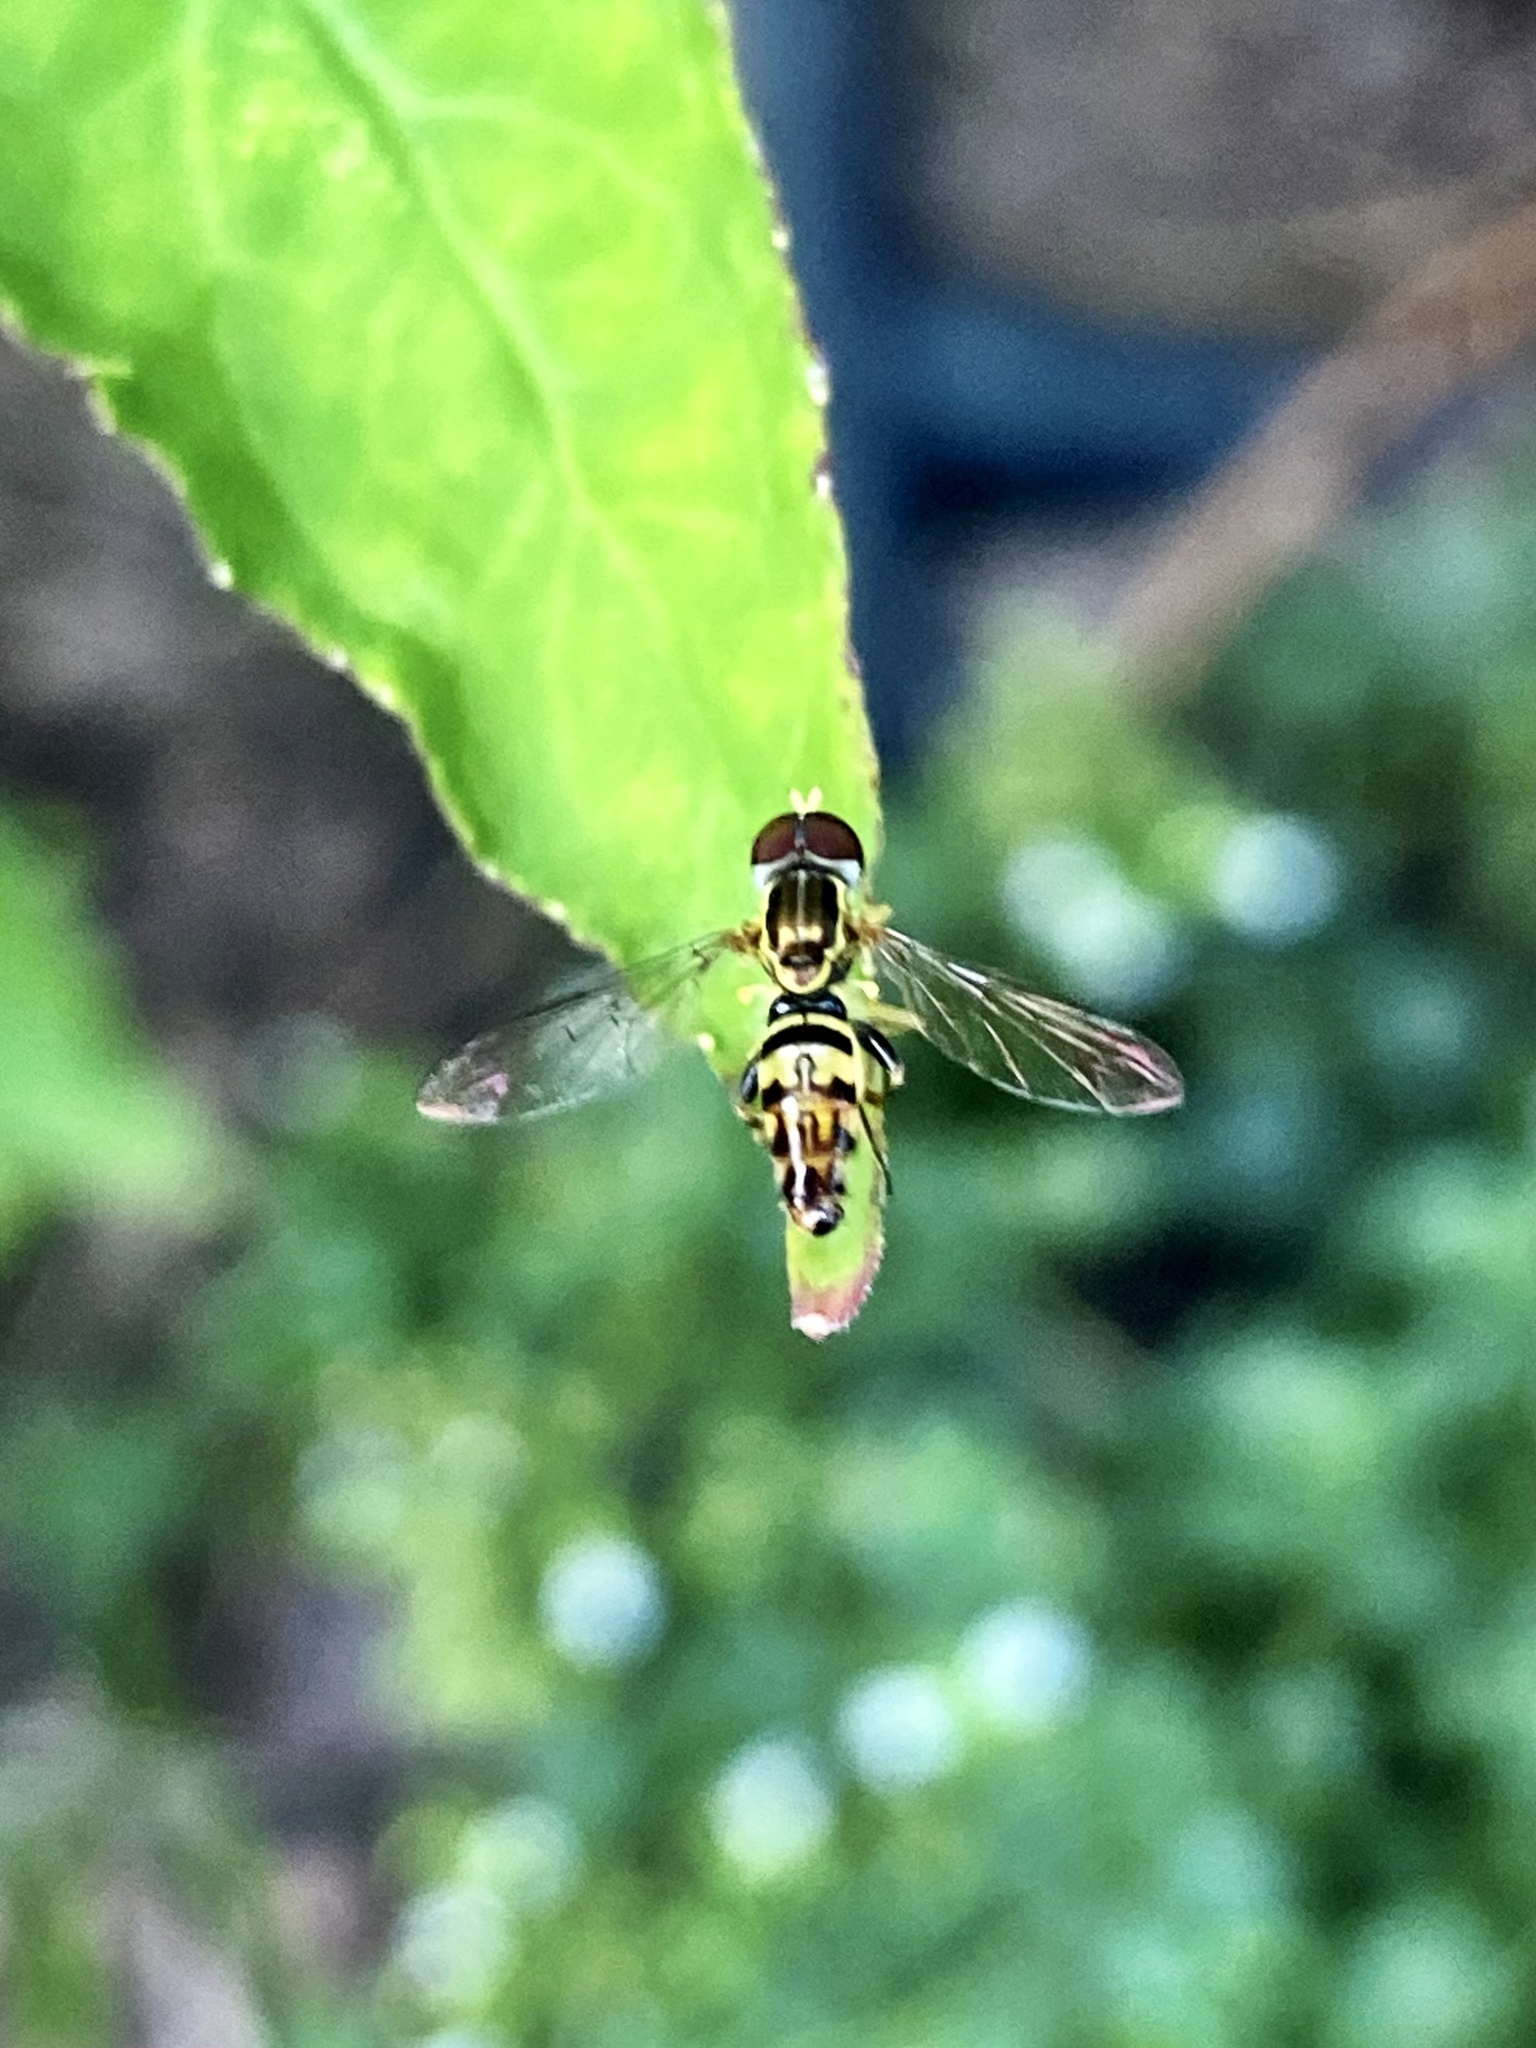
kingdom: Animalia
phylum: Arthropoda
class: Insecta
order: Diptera
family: Syrphidae
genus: Toxomerus
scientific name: Toxomerus geminatus
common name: Eastern calligrapher
